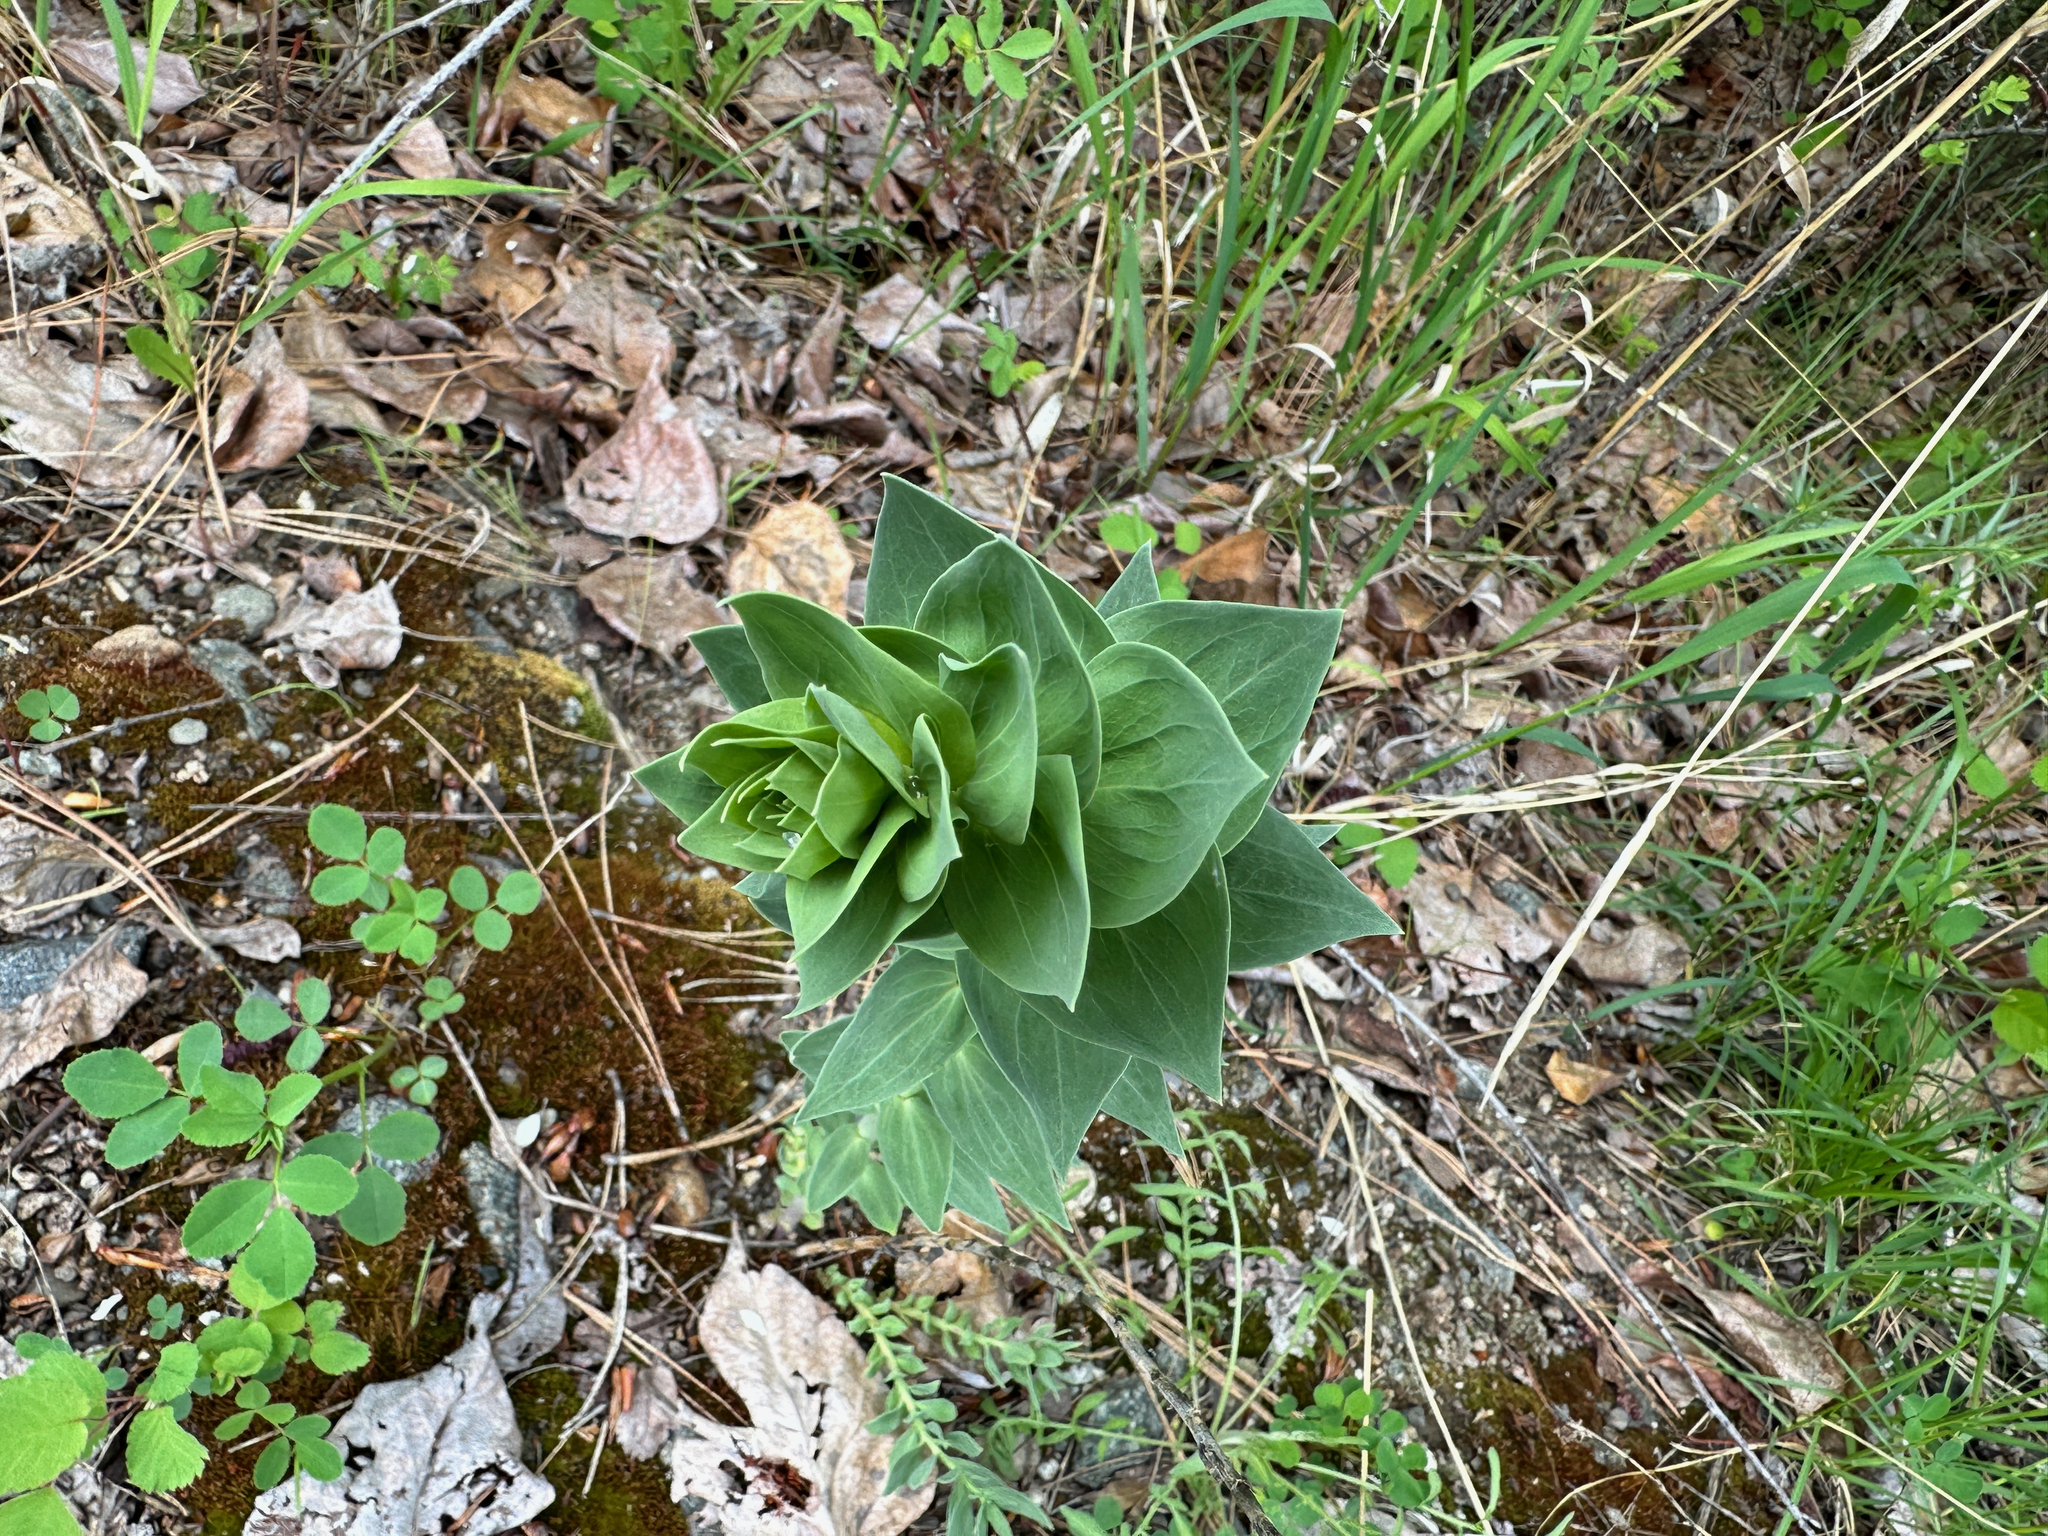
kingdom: Plantae
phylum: Tracheophyta
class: Magnoliopsida
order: Lamiales
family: Plantaginaceae
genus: Linaria
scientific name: Linaria dalmatica
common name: Dalmatian toadflax
